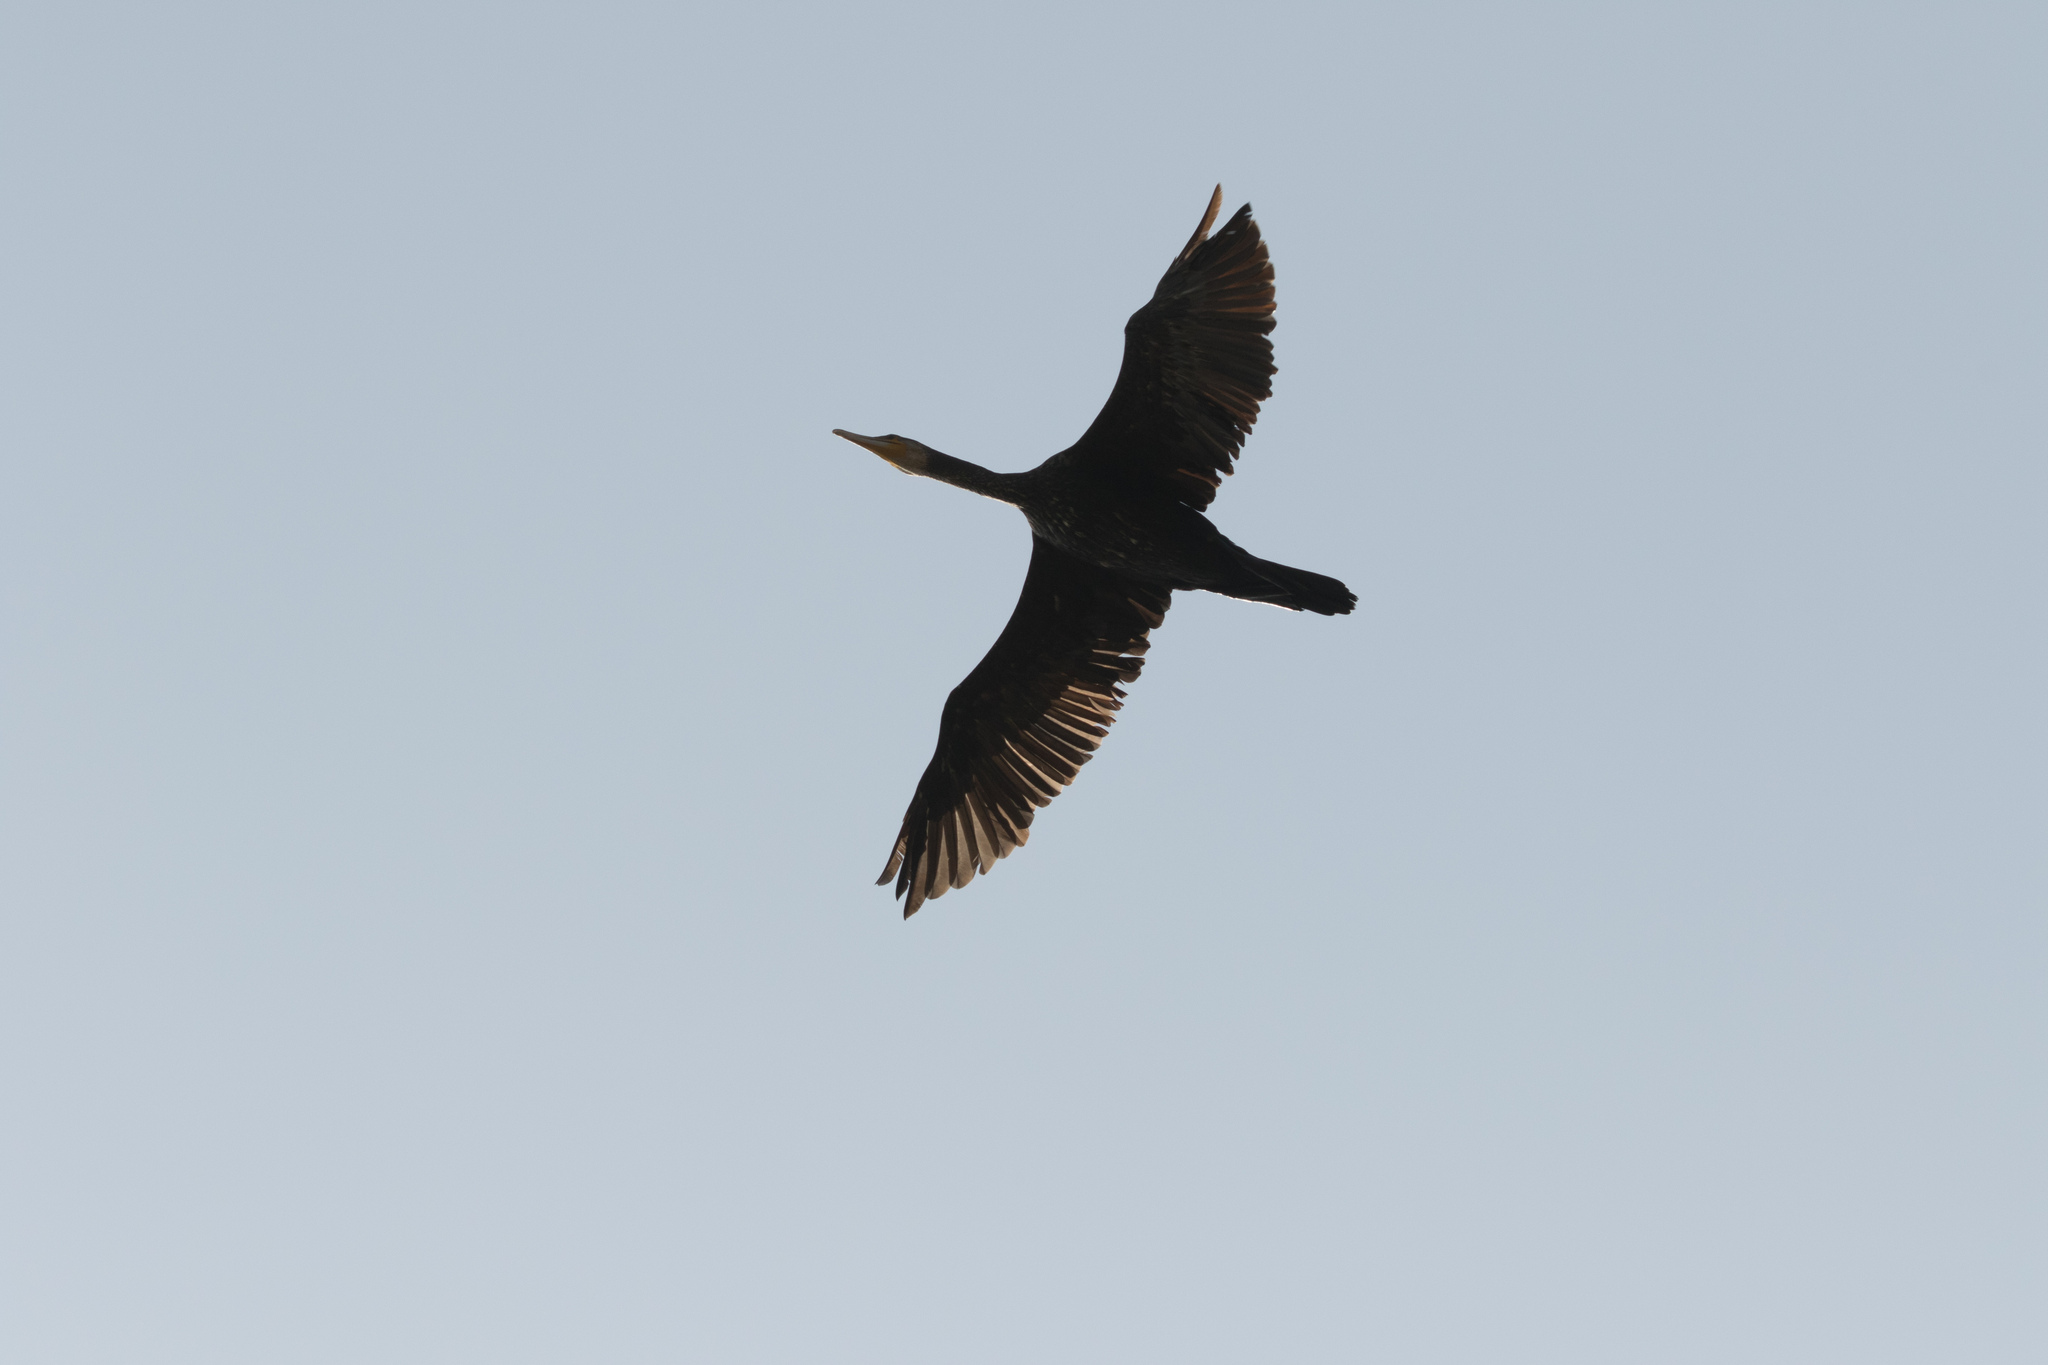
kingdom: Animalia
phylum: Chordata
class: Aves
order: Suliformes
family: Phalacrocoracidae
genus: Phalacrocorax
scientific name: Phalacrocorax carbo
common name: Great cormorant
